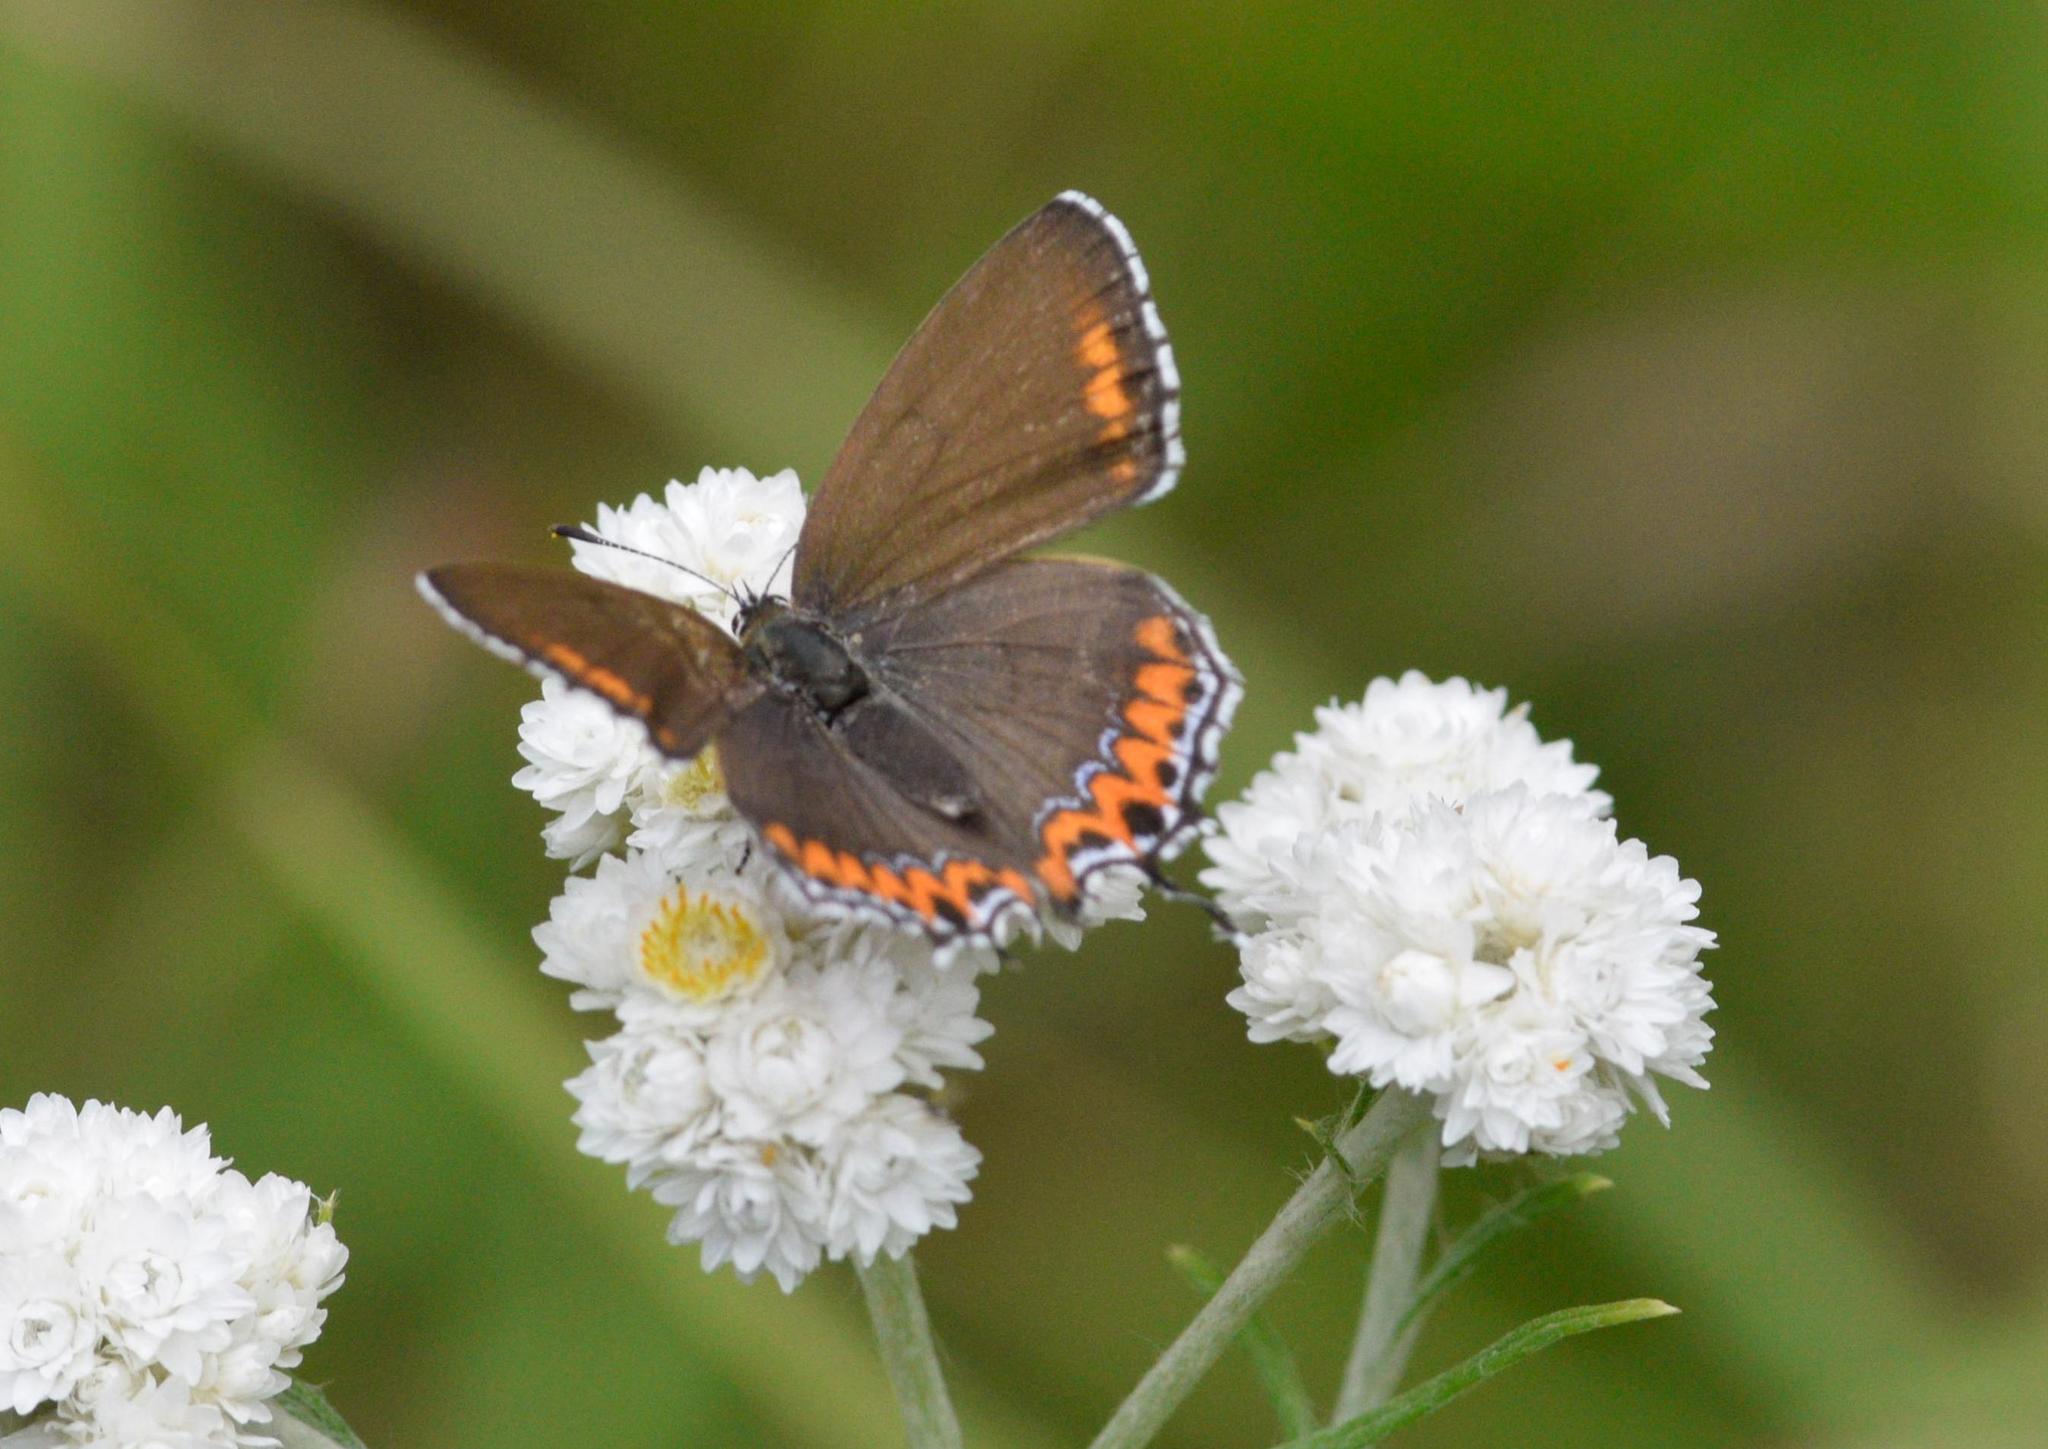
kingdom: Animalia
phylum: Arthropoda
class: Insecta
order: Lepidoptera
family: Lycaenidae
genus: Heliophorus
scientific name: Heliophorus sena
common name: Sorrel sapphire
